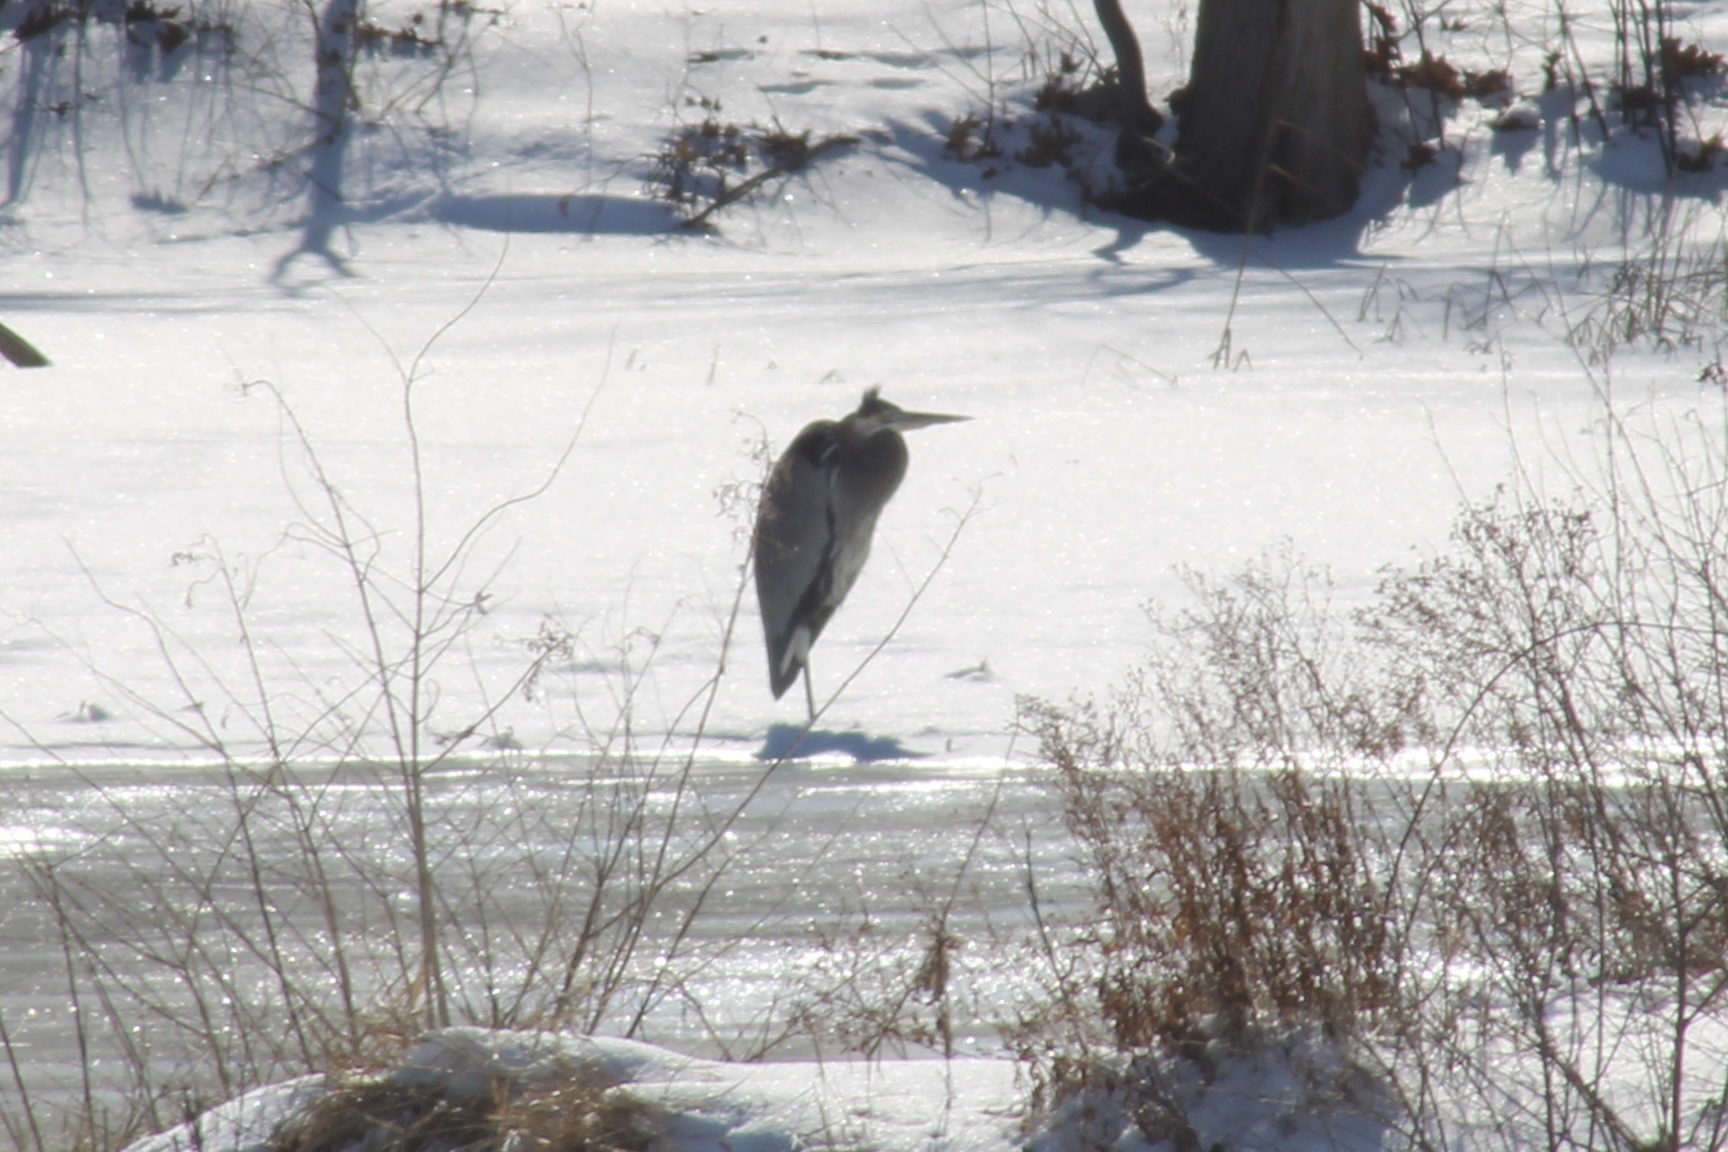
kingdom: Animalia
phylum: Chordata
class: Aves
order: Pelecaniformes
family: Ardeidae
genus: Ardea
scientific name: Ardea herodias
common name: Great blue heron
